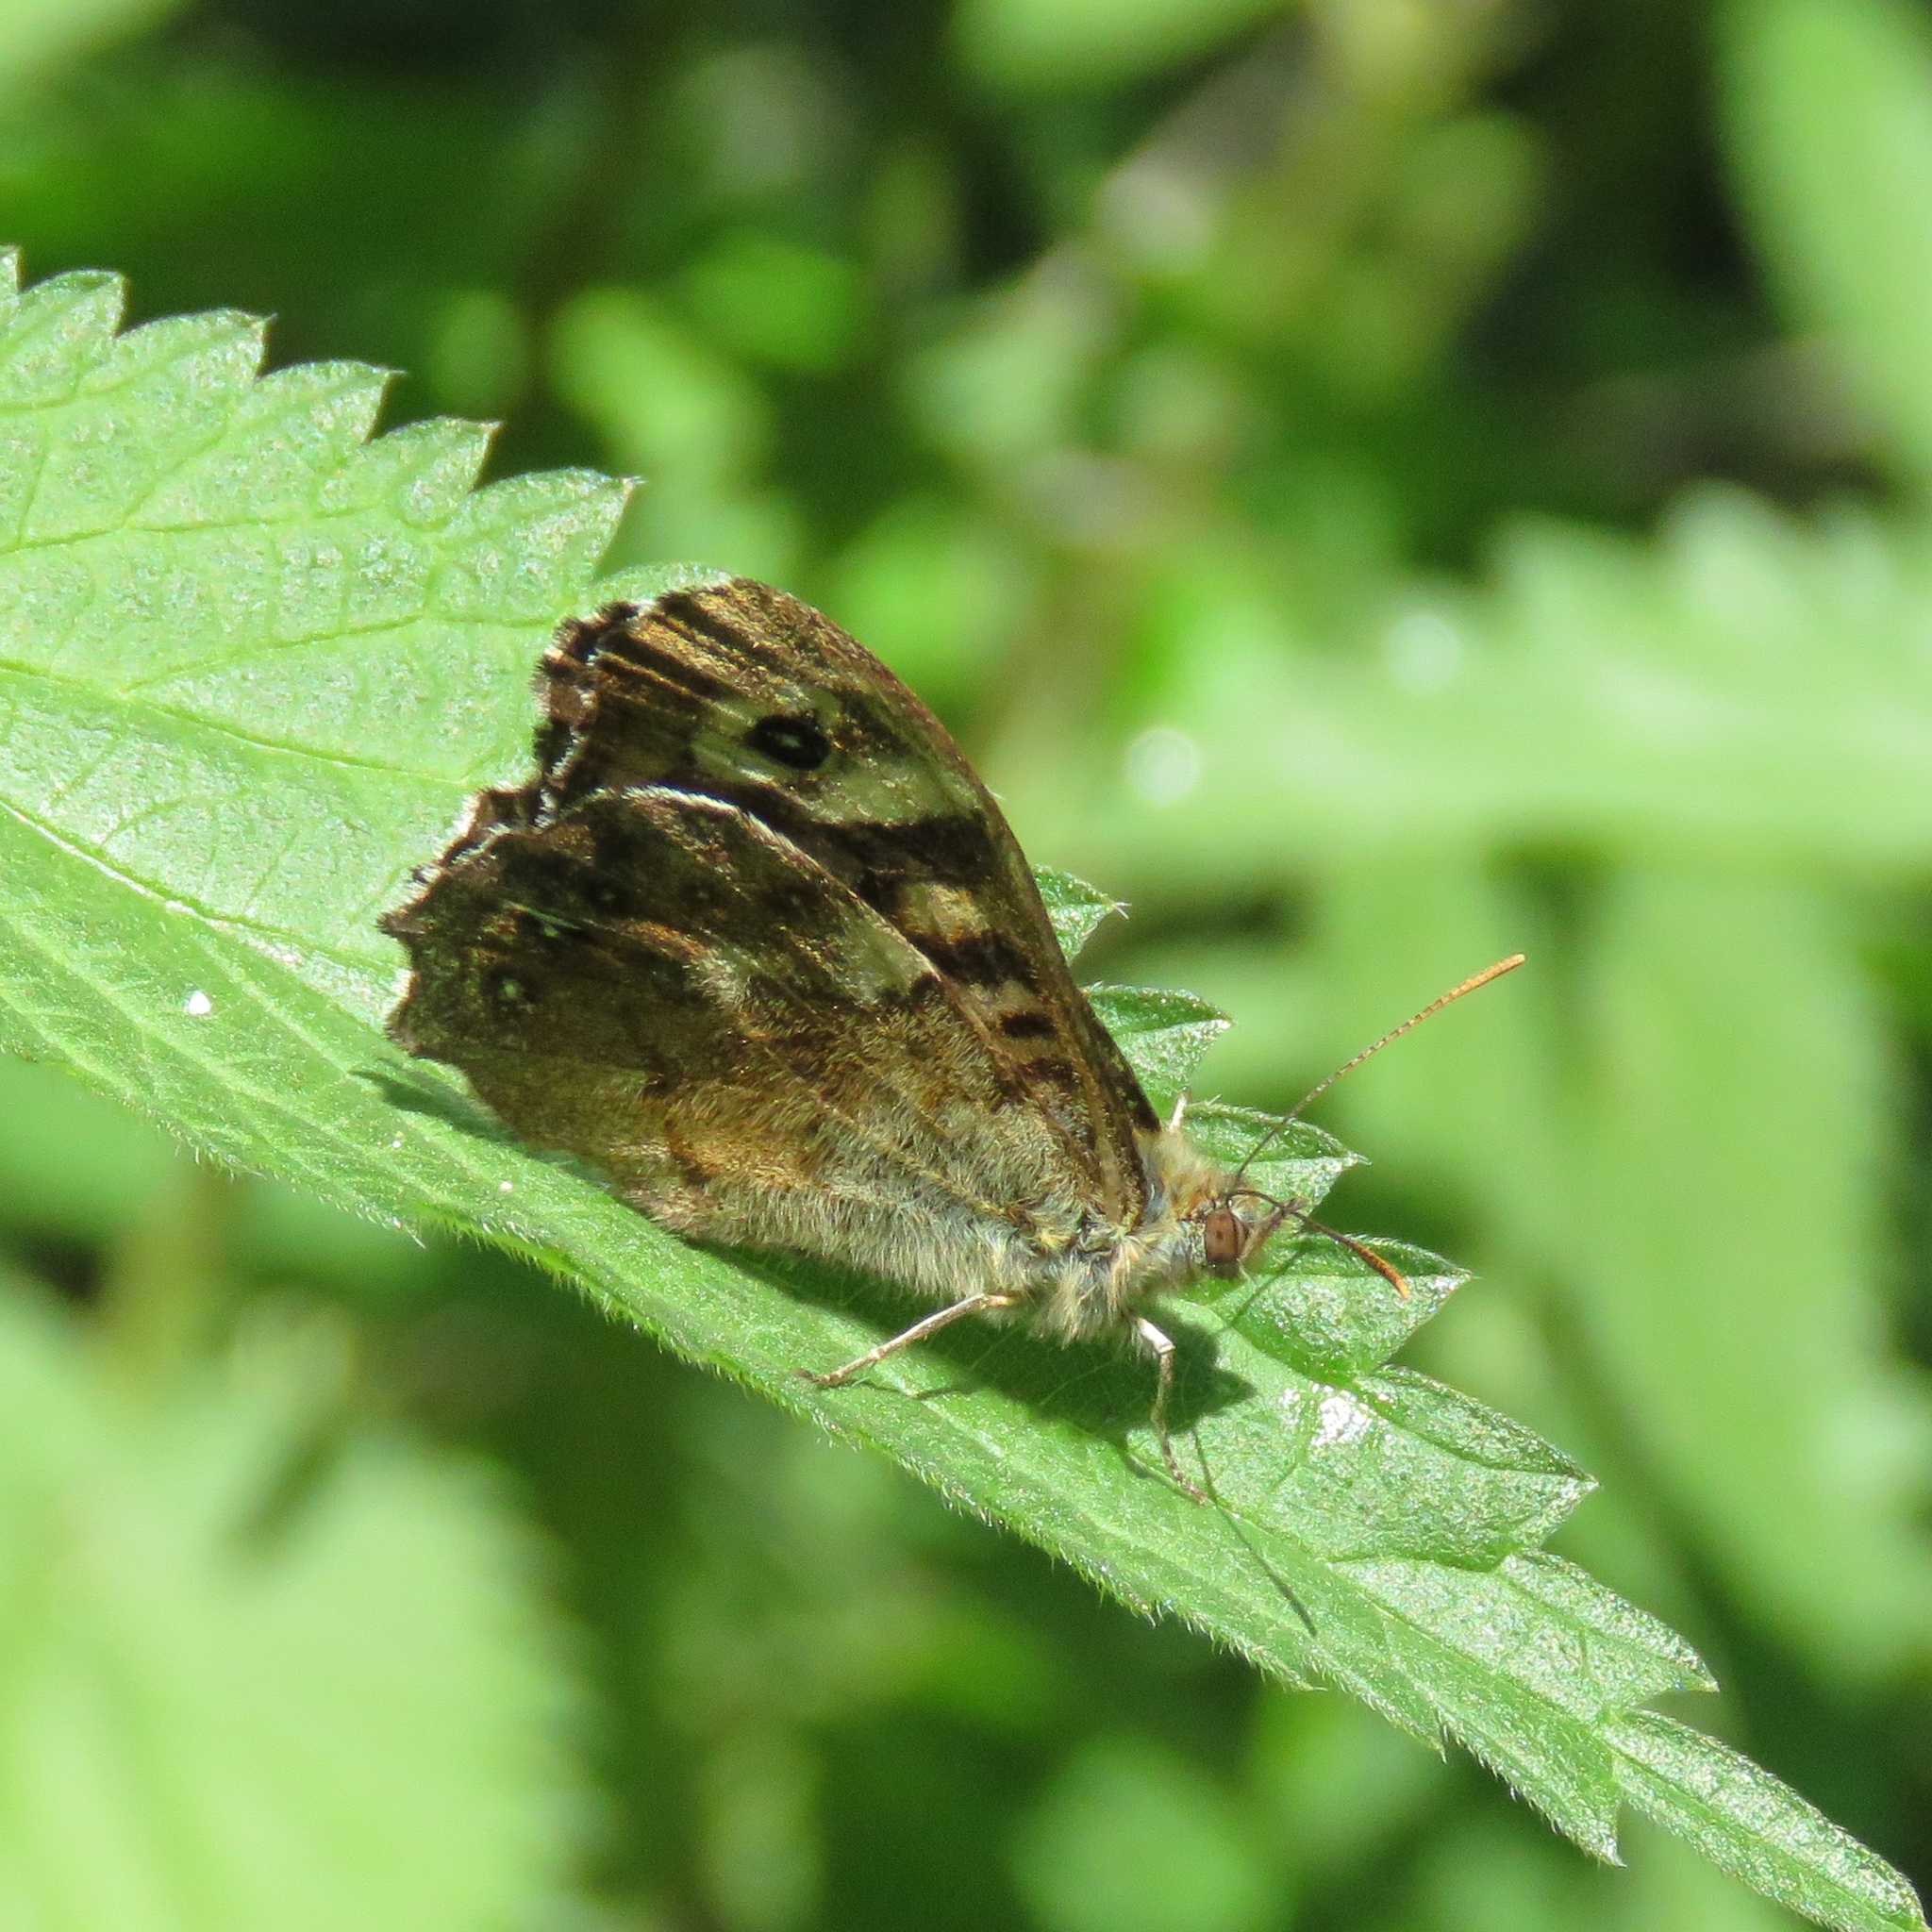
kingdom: Animalia
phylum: Arthropoda
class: Insecta
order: Lepidoptera
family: Nymphalidae
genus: Pararge
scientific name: Pararge aegeria
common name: Speckled wood
